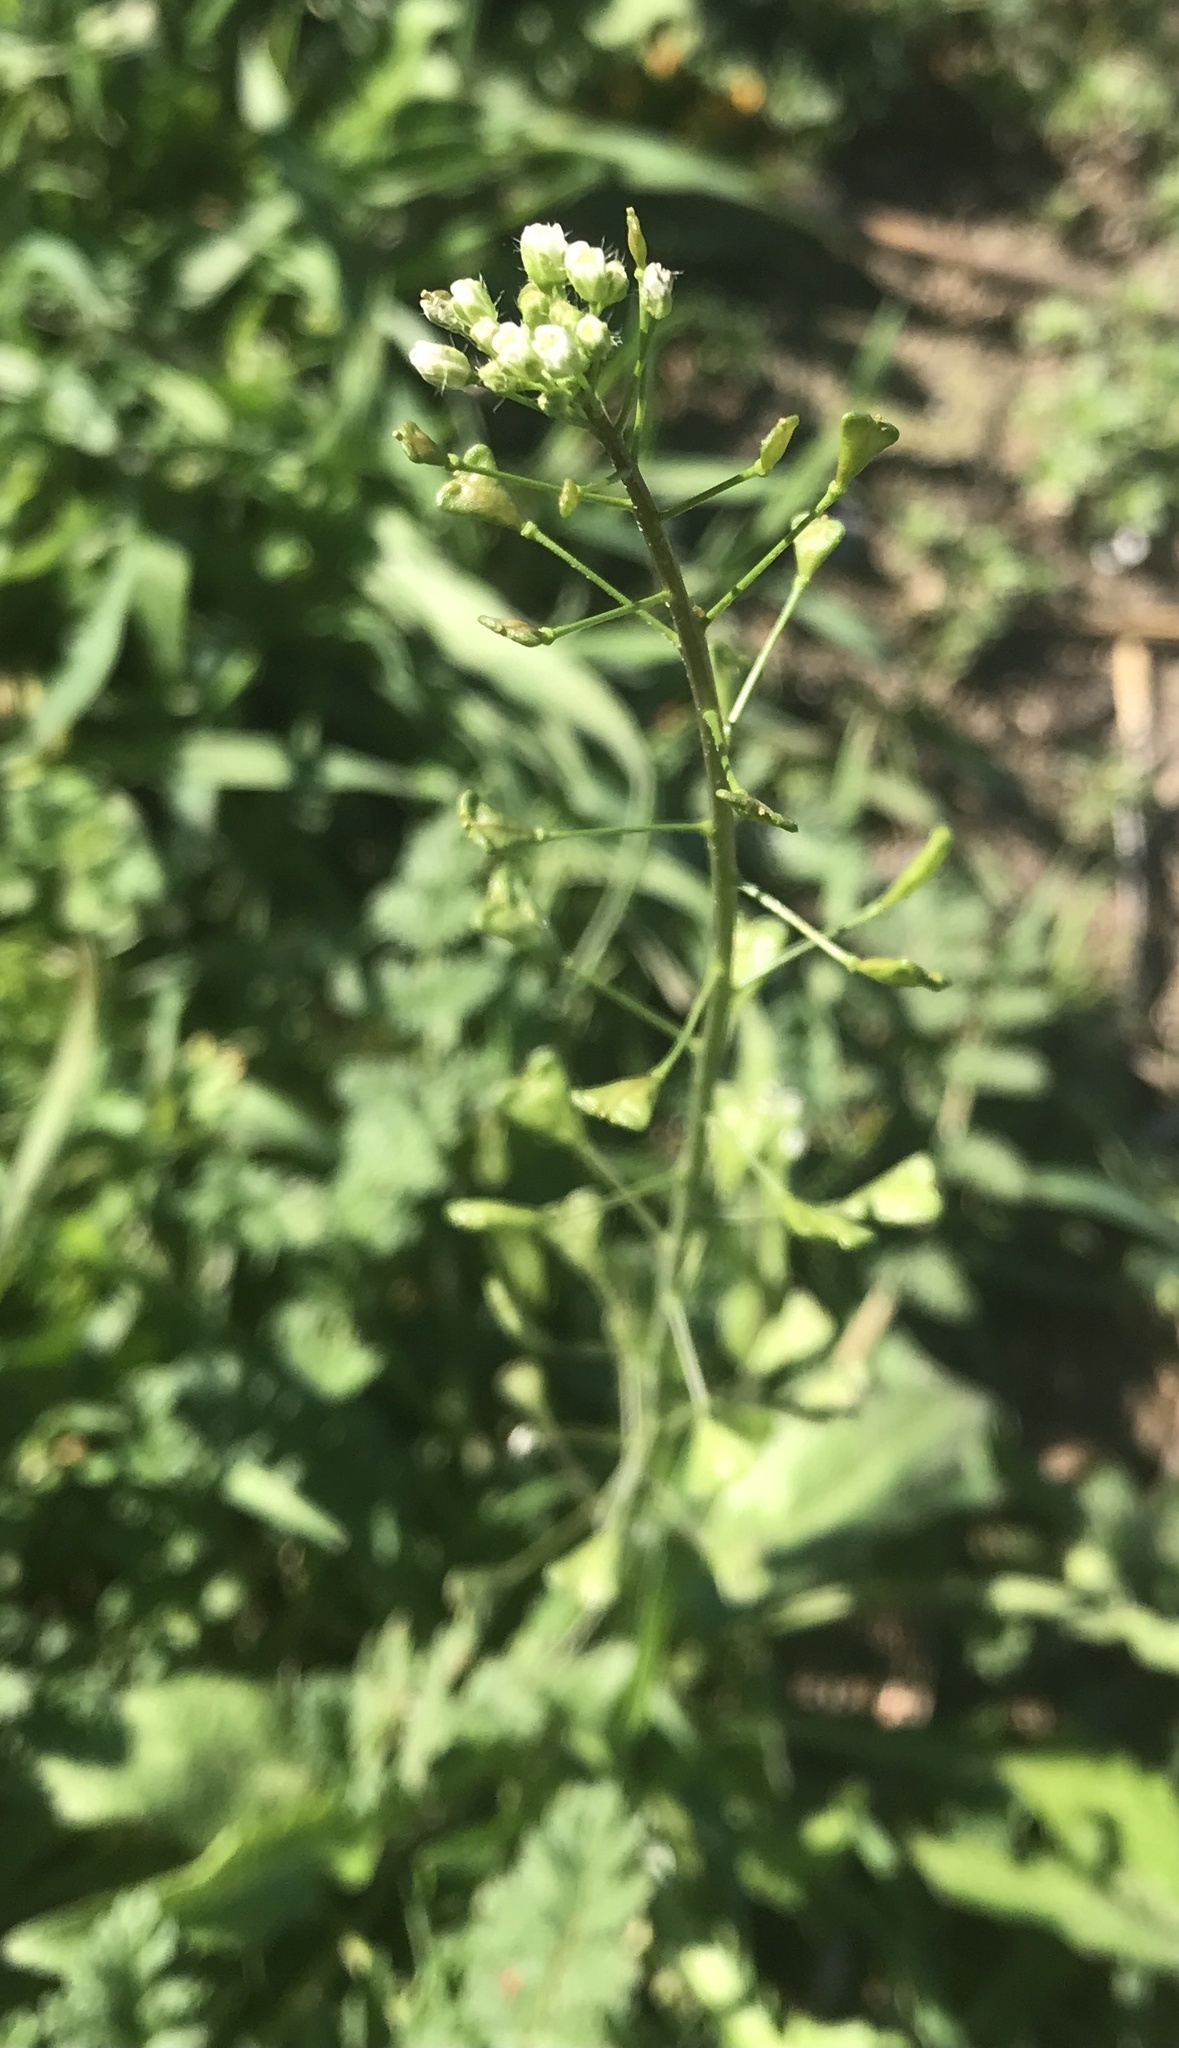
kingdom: Plantae
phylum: Tracheophyta
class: Magnoliopsida
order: Brassicales
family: Brassicaceae
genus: Capsella
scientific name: Capsella bursa-pastoris
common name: Shepherd's purse
